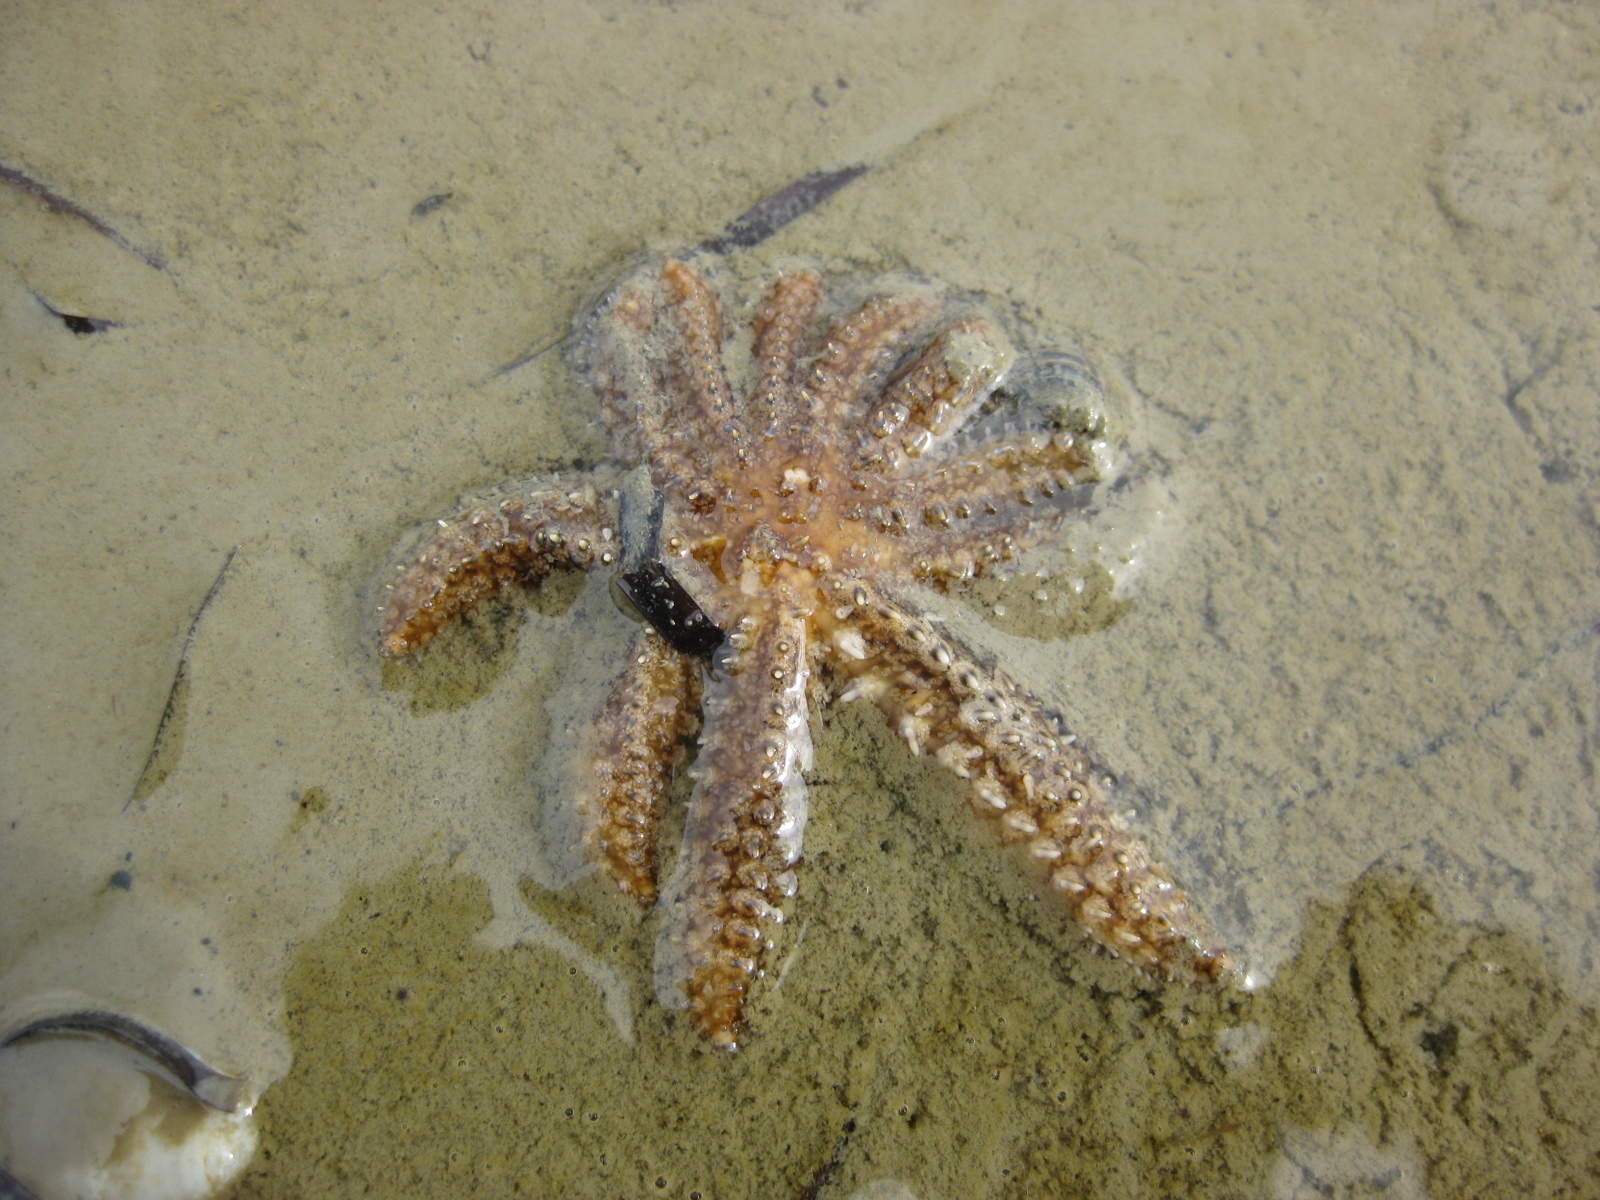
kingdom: Animalia
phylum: Echinodermata
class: Asteroidea
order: Forcipulatida
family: Asteriidae
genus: Coscinasterias
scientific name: Coscinasterias muricata
